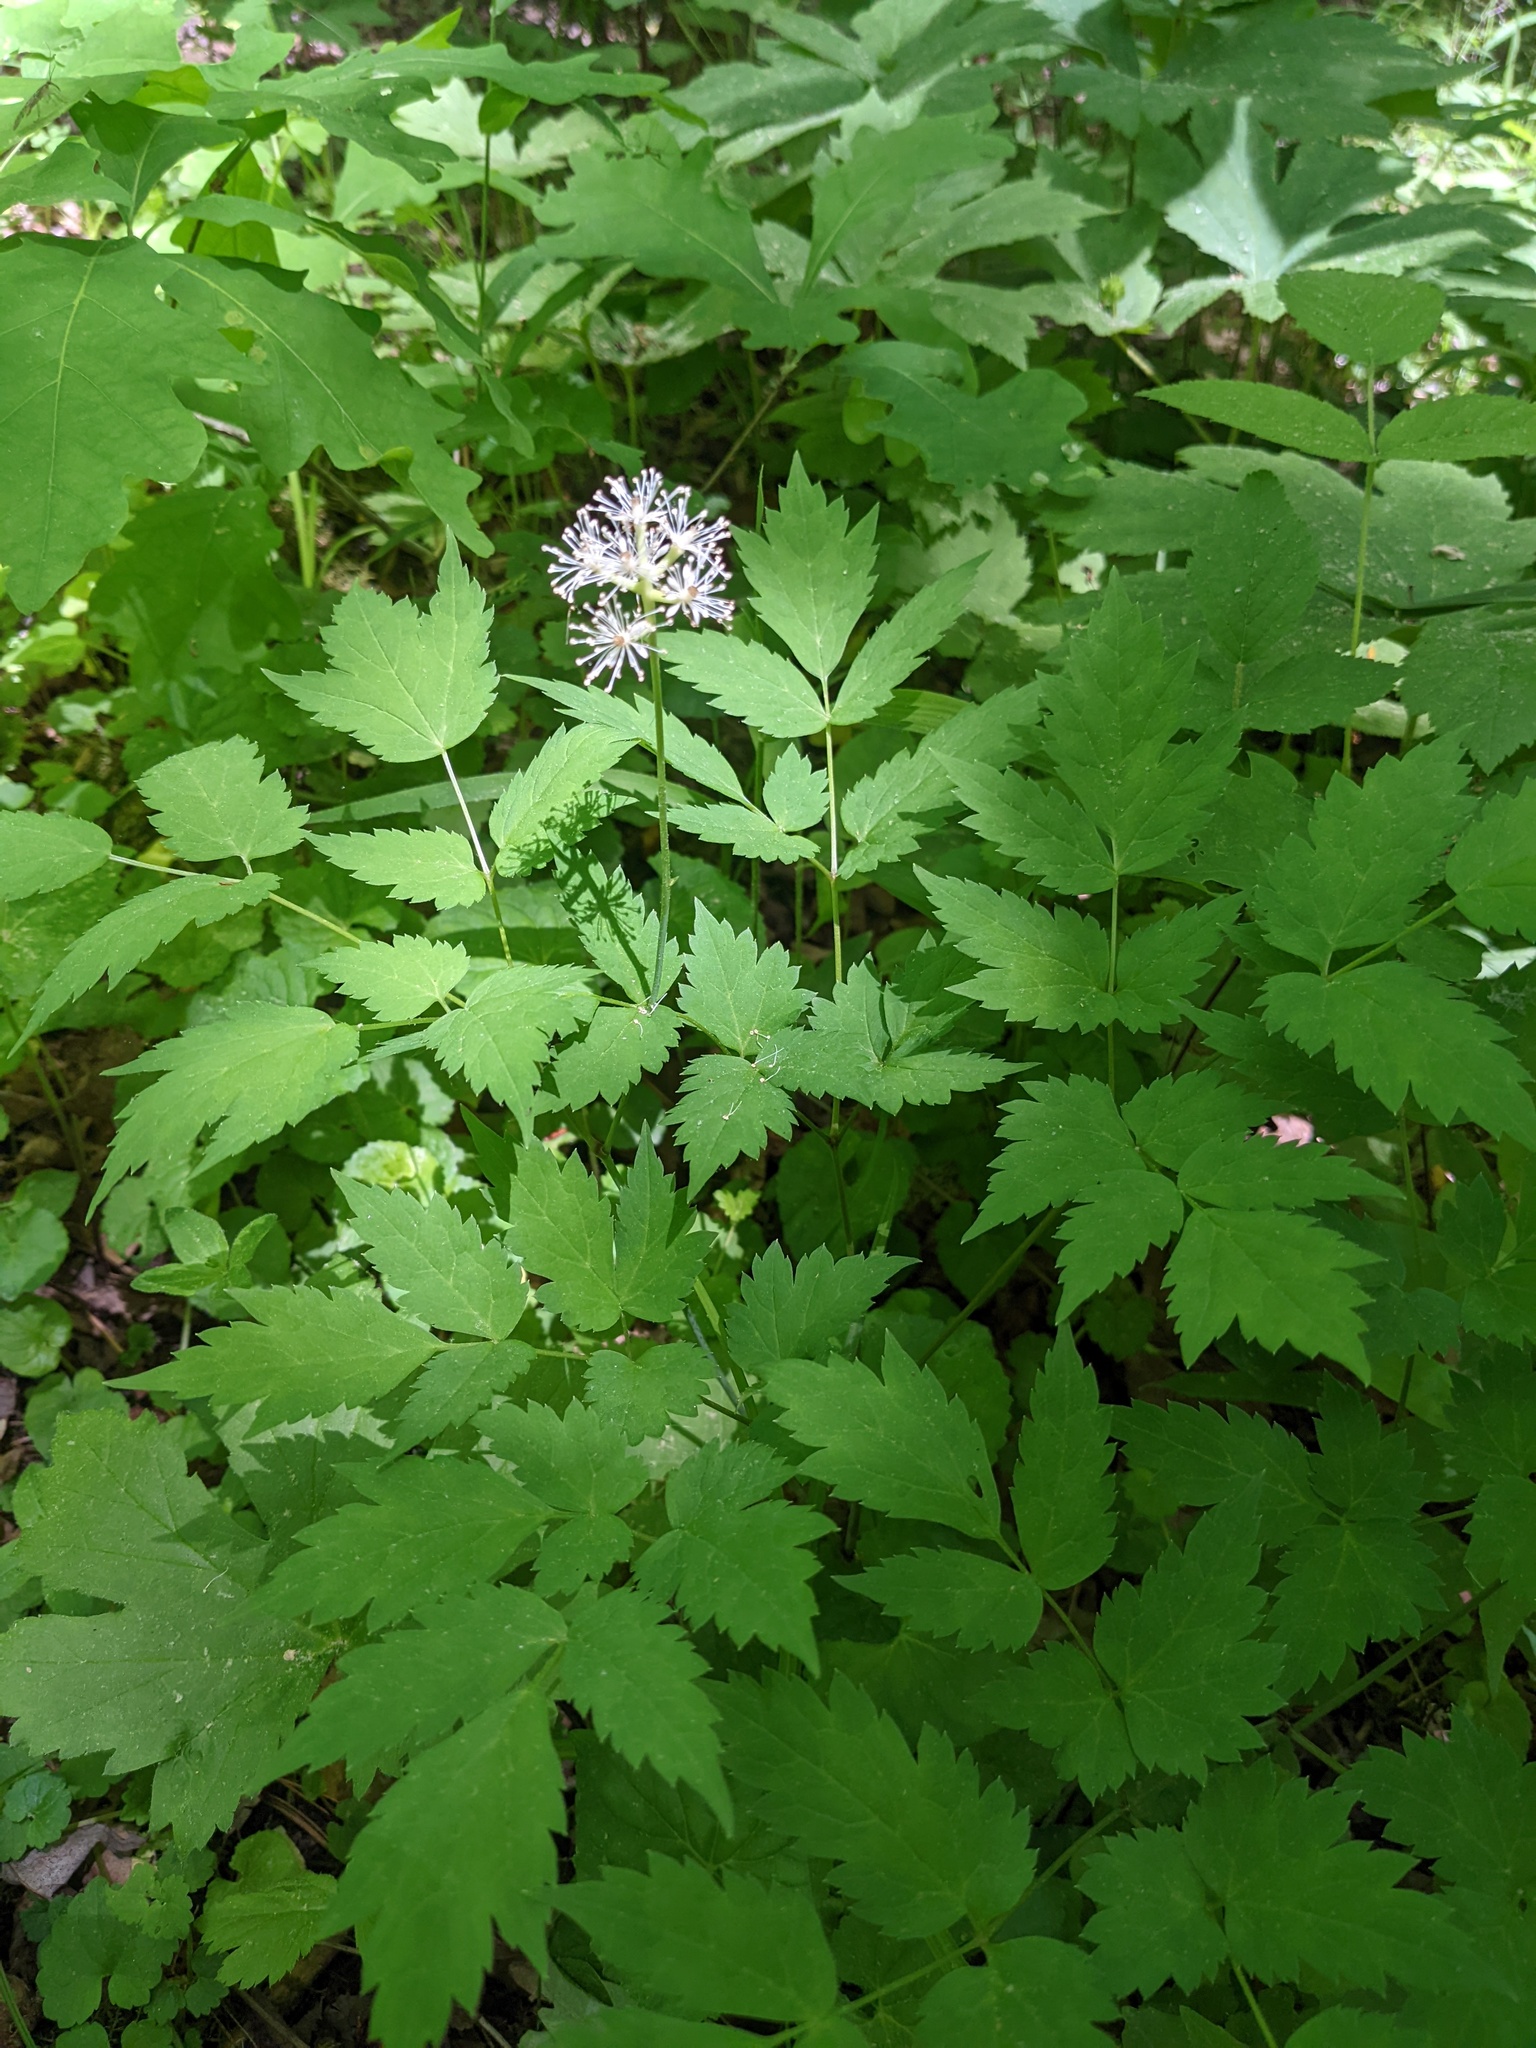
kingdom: Plantae
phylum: Tracheophyta
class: Magnoliopsida
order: Ranunculales
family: Ranunculaceae
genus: Actaea
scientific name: Actaea pachypoda
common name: Doll's-eyes
